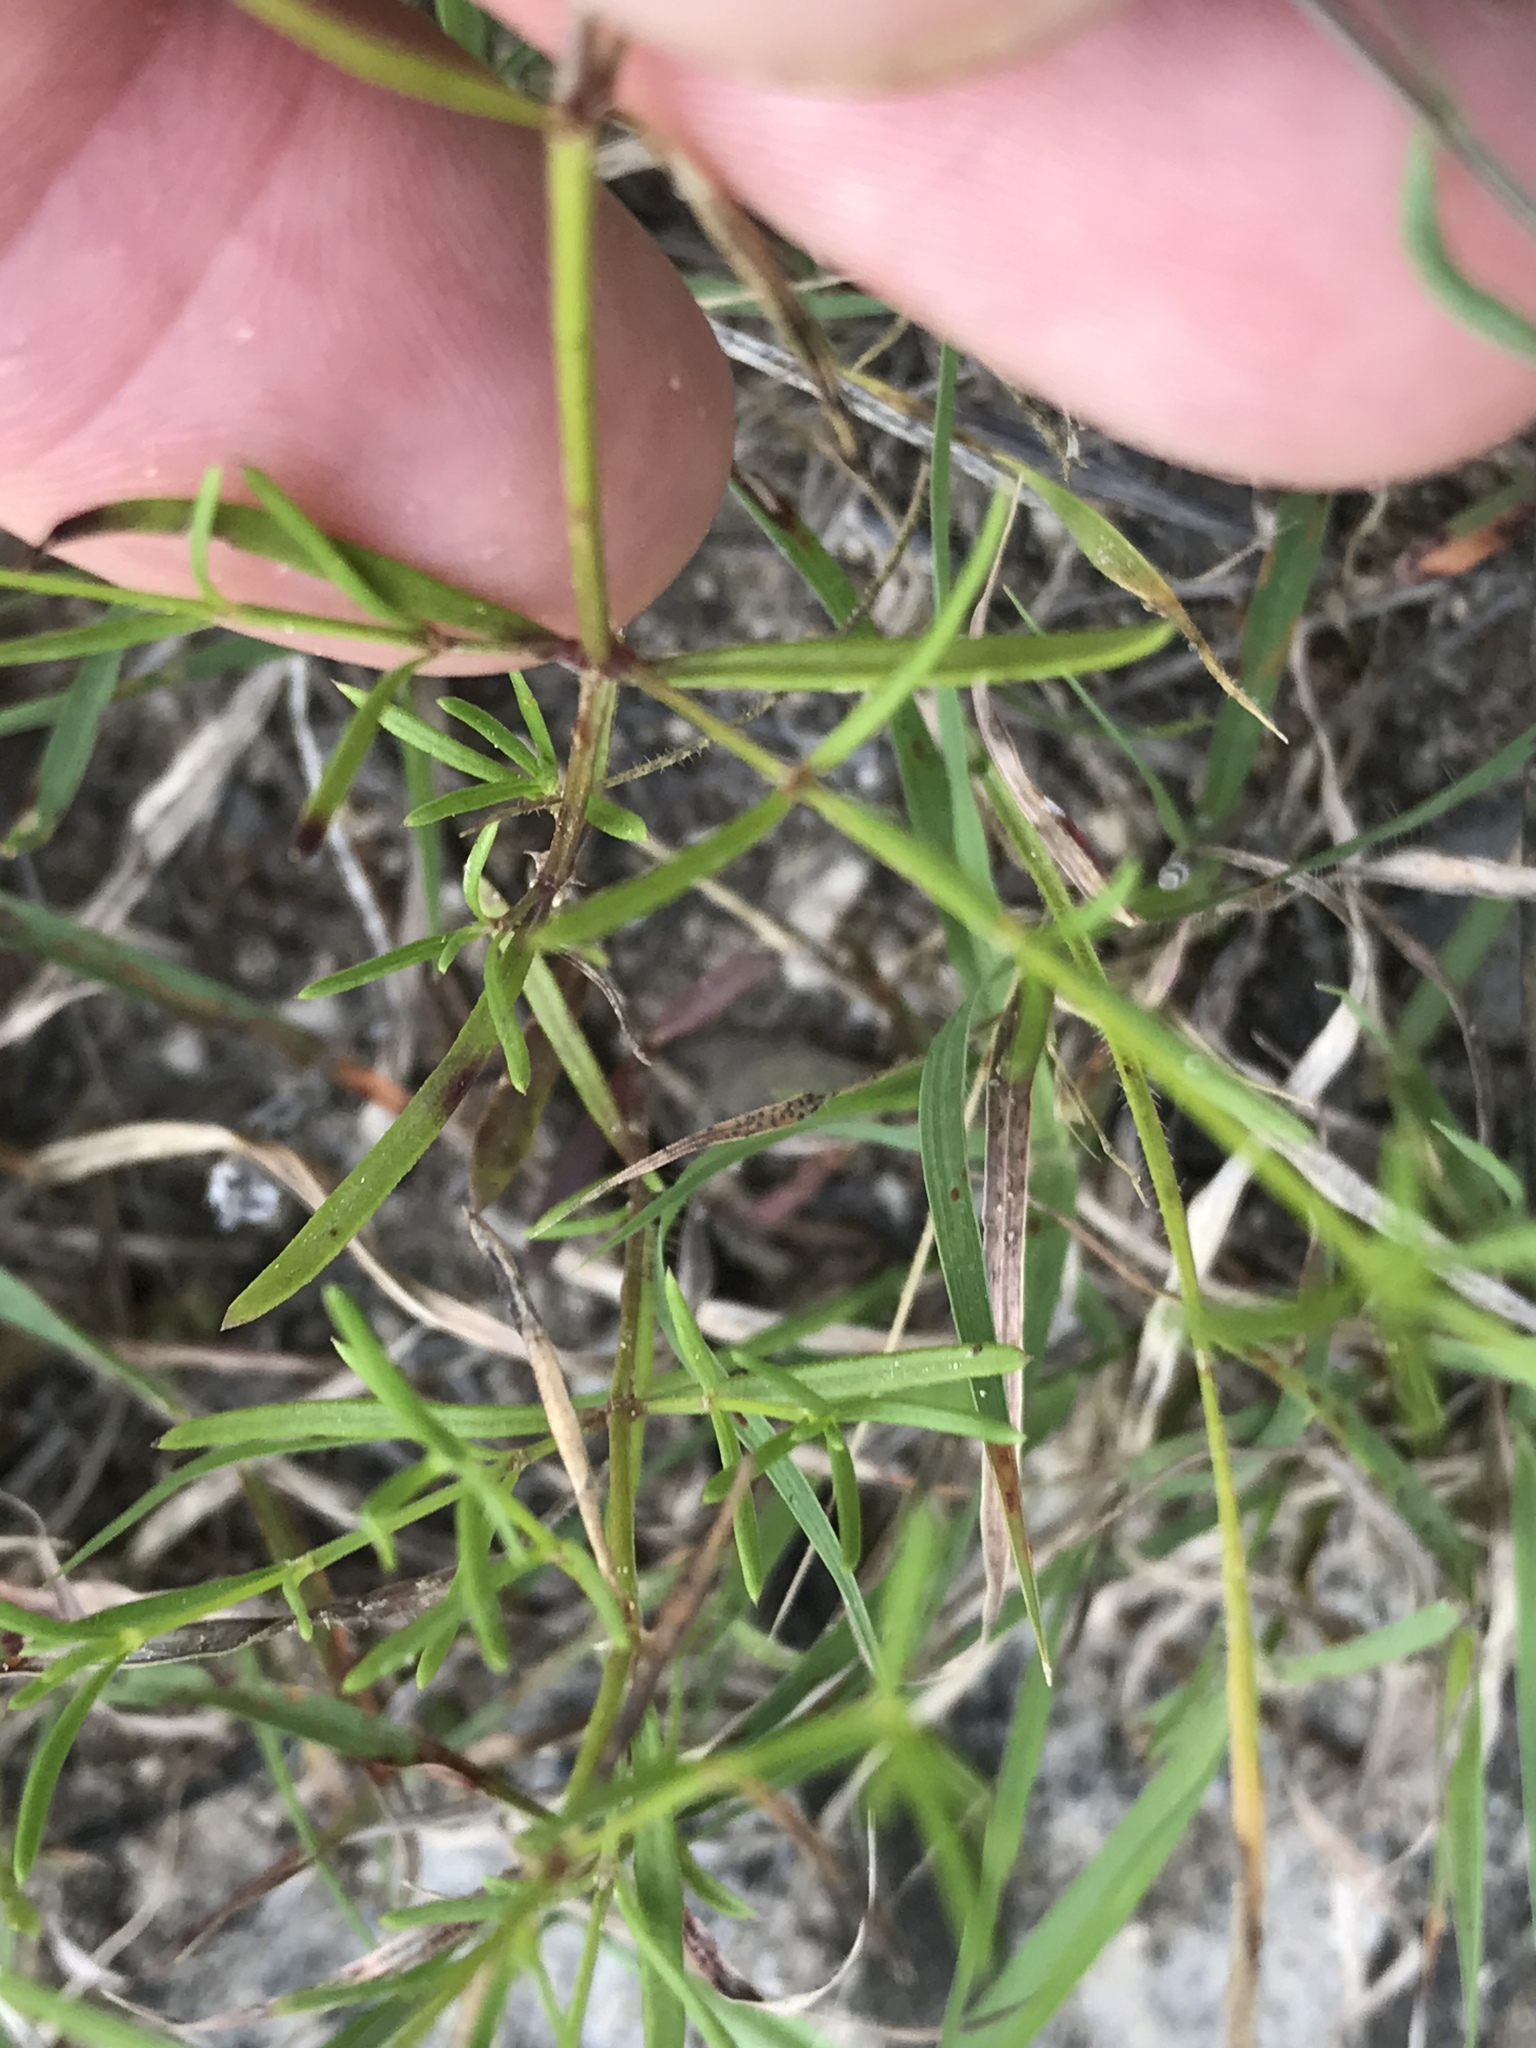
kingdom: Plantae
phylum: Tracheophyta
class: Magnoliopsida
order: Gentianales
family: Rubiaceae
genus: Stenaria
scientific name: Stenaria nigricans
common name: Diamondflowers
